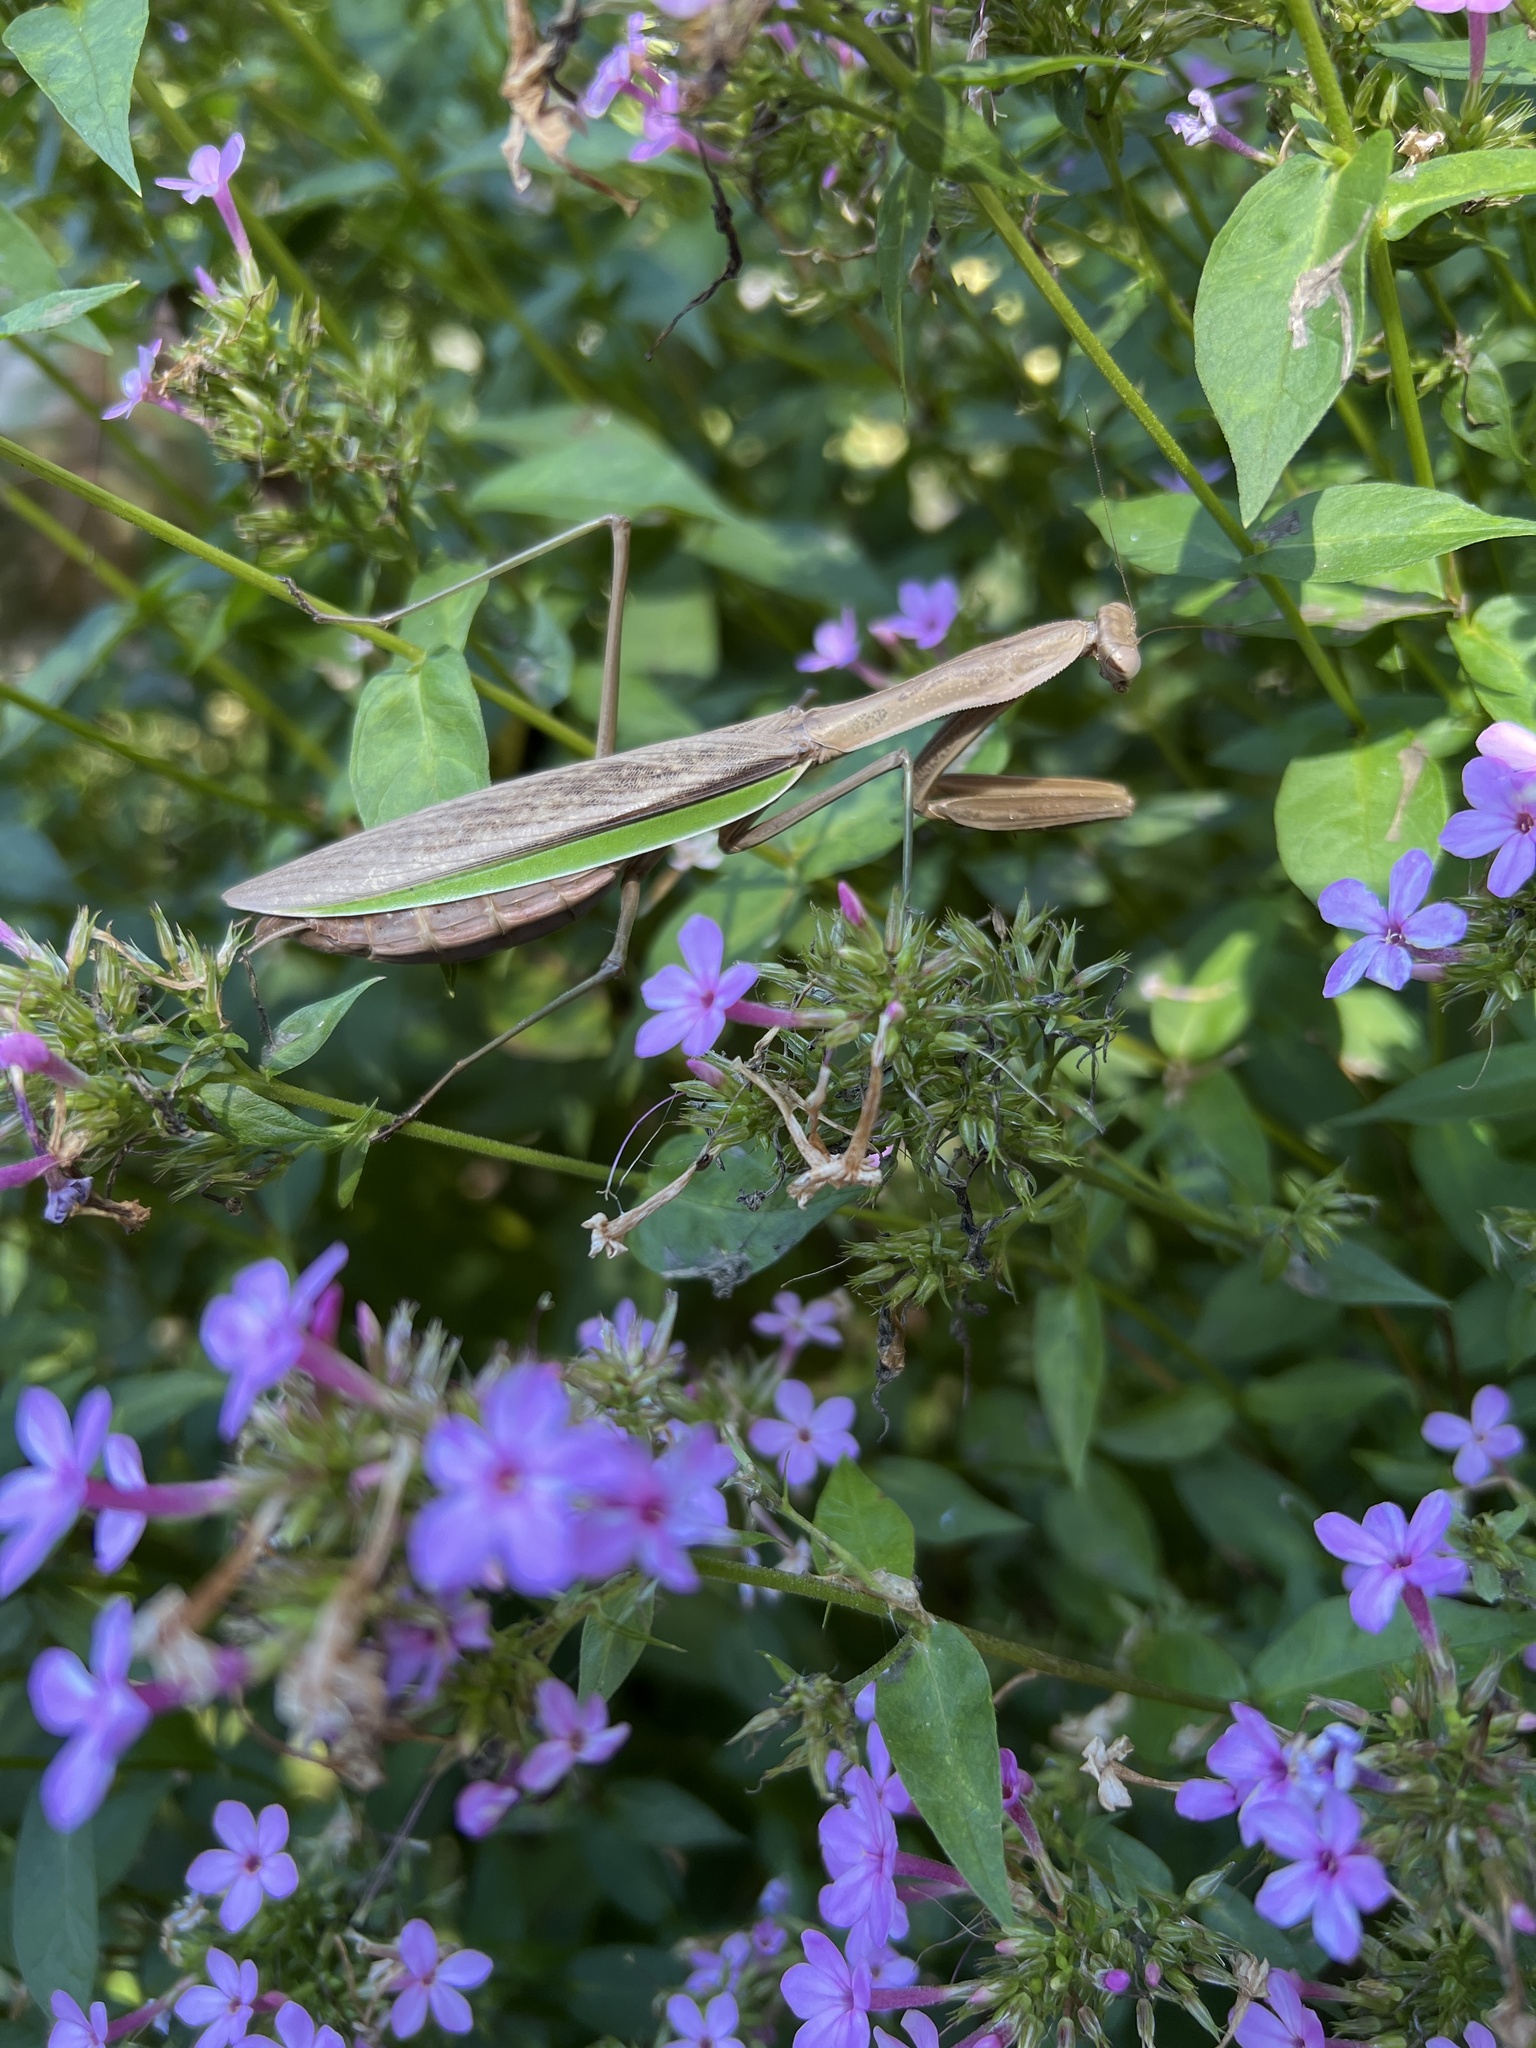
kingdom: Animalia
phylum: Arthropoda
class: Insecta
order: Mantodea
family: Mantidae
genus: Tenodera
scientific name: Tenodera sinensis
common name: Chinese mantis
